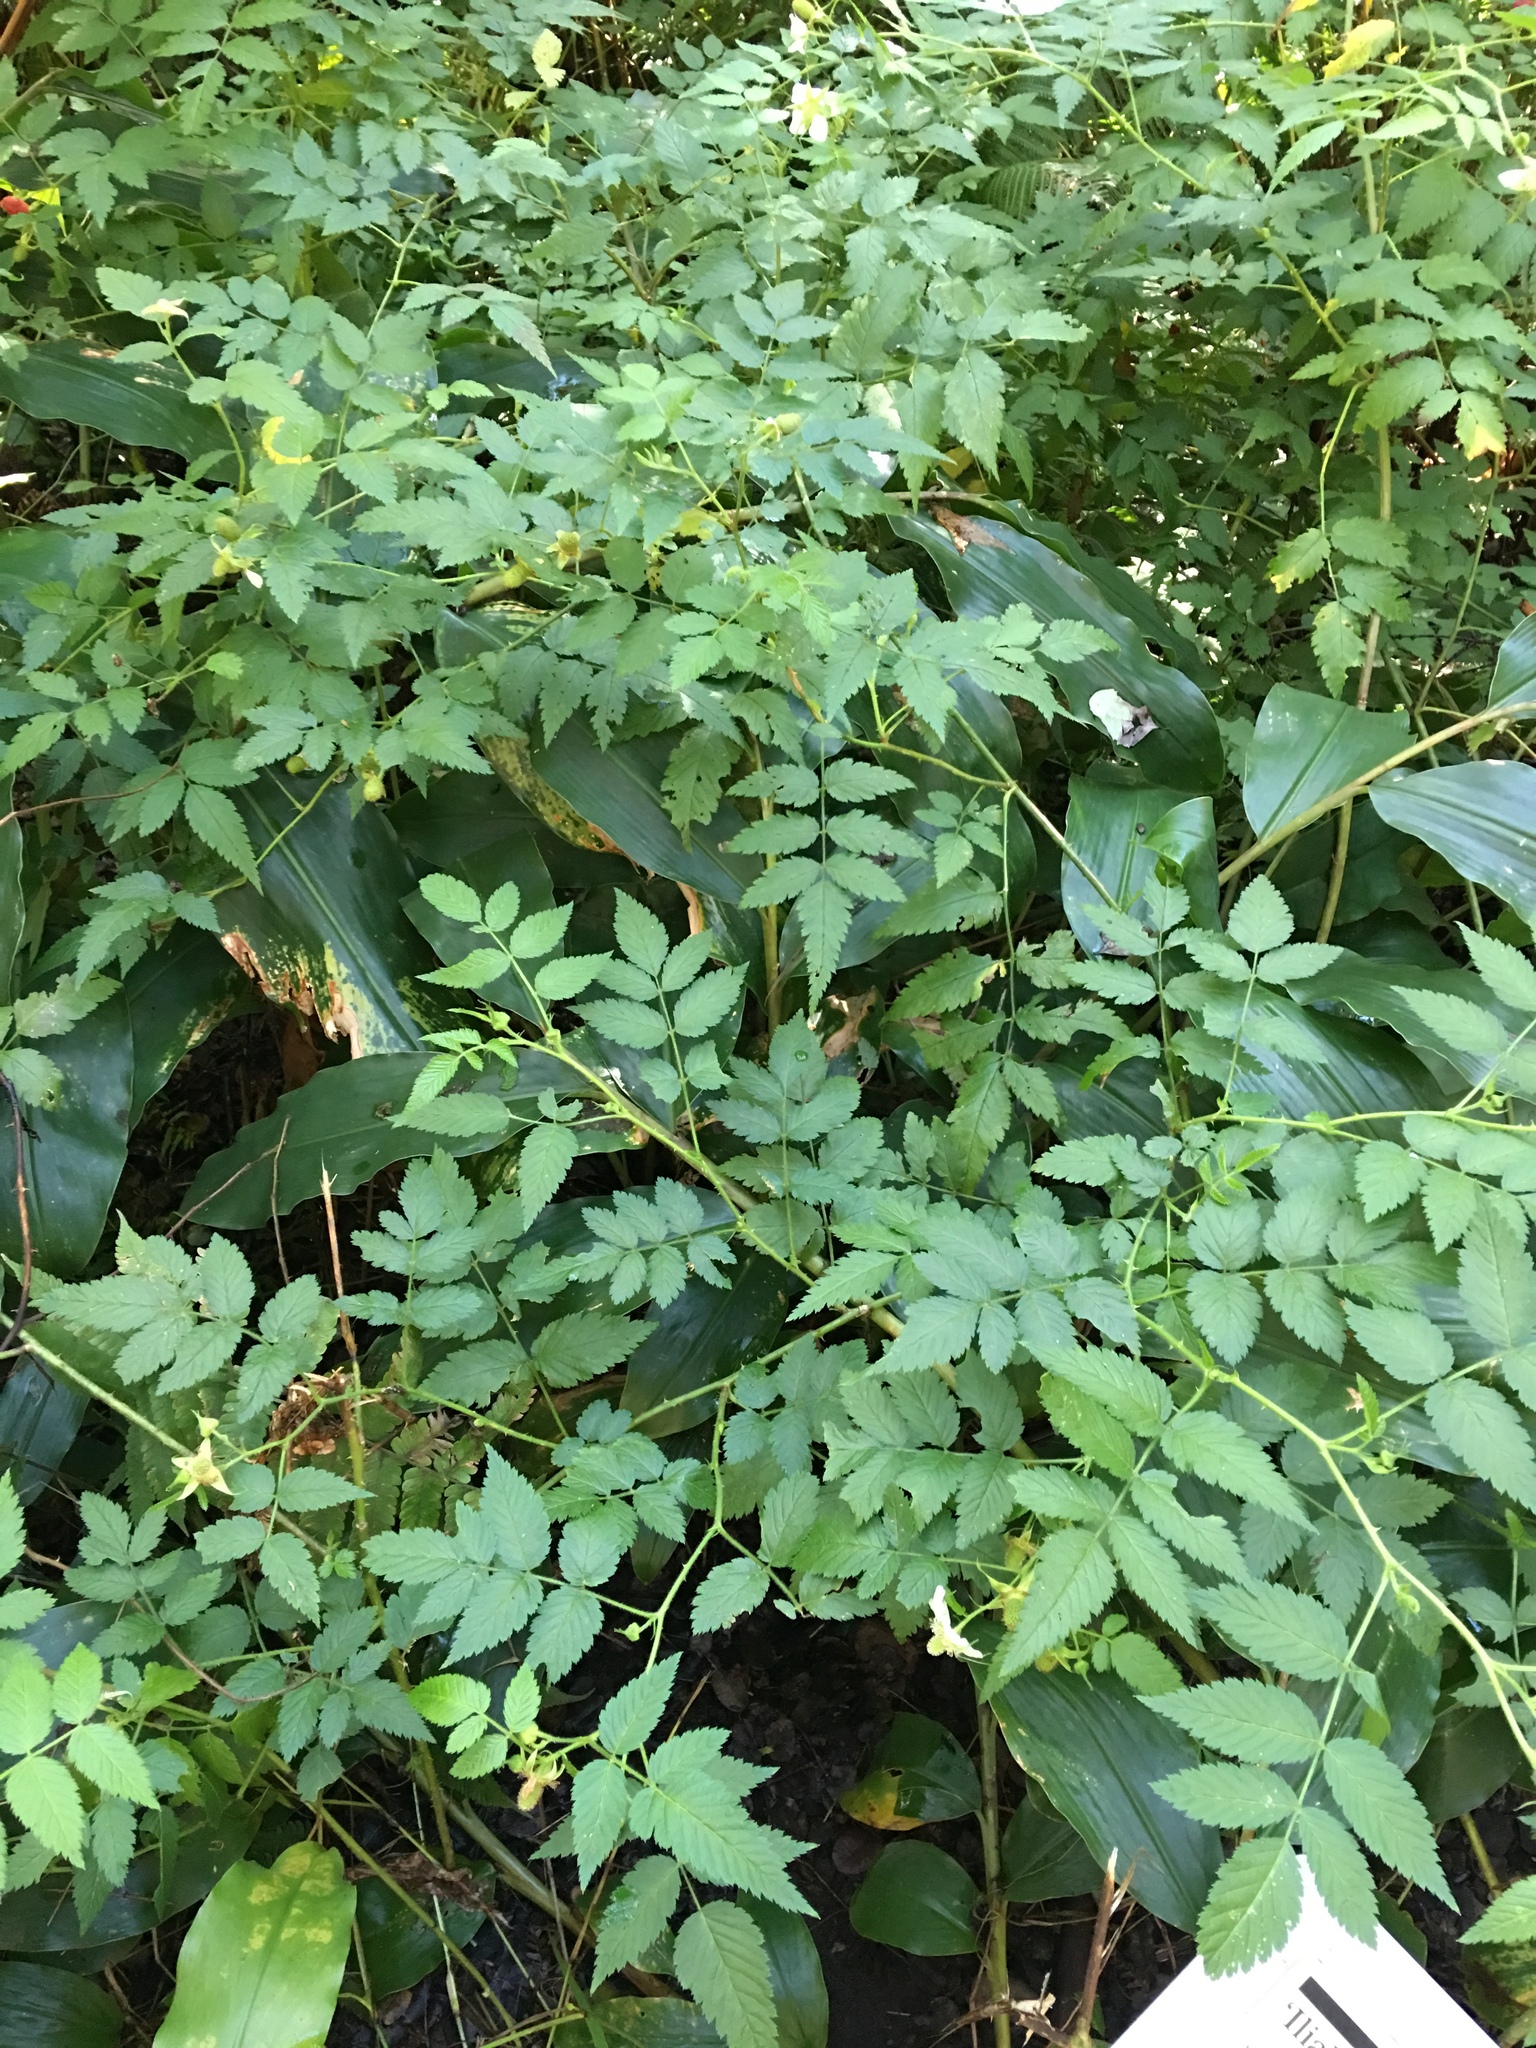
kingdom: Plantae
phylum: Tracheophyta
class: Magnoliopsida
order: Rosales
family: Rosaceae
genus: Rubus
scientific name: Rubus rosifolius
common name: Roseleaf raspberry
